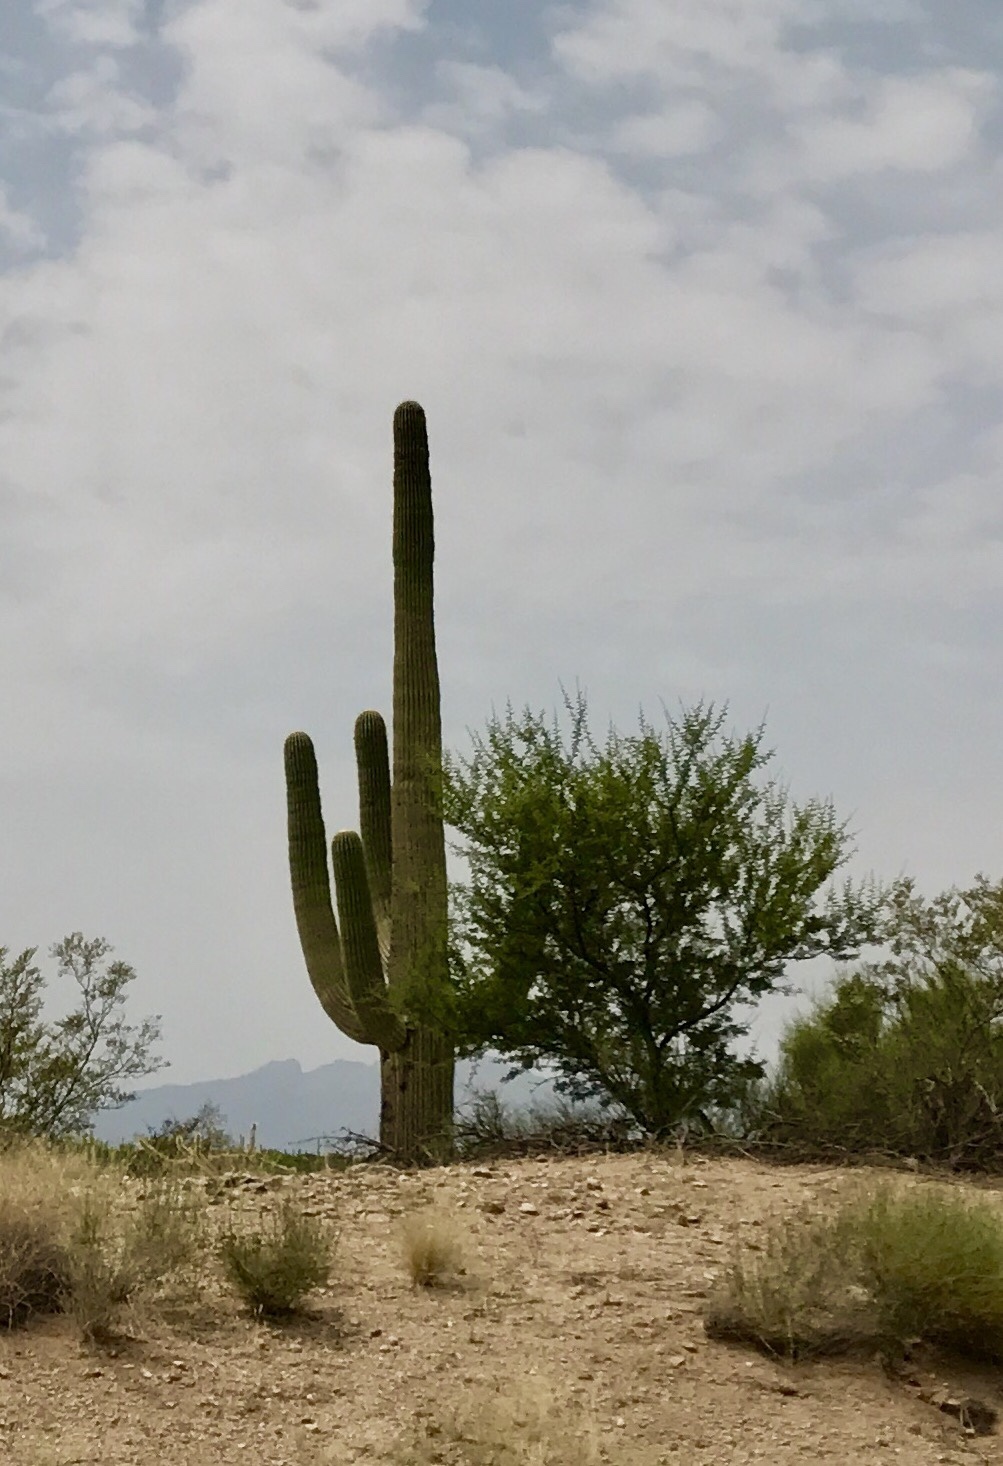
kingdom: Plantae
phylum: Tracheophyta
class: Magnoliopsida
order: Caryophyllales
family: Cactaceae
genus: Carnegiea
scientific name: Carnegiea gigantea
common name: Saguaro
